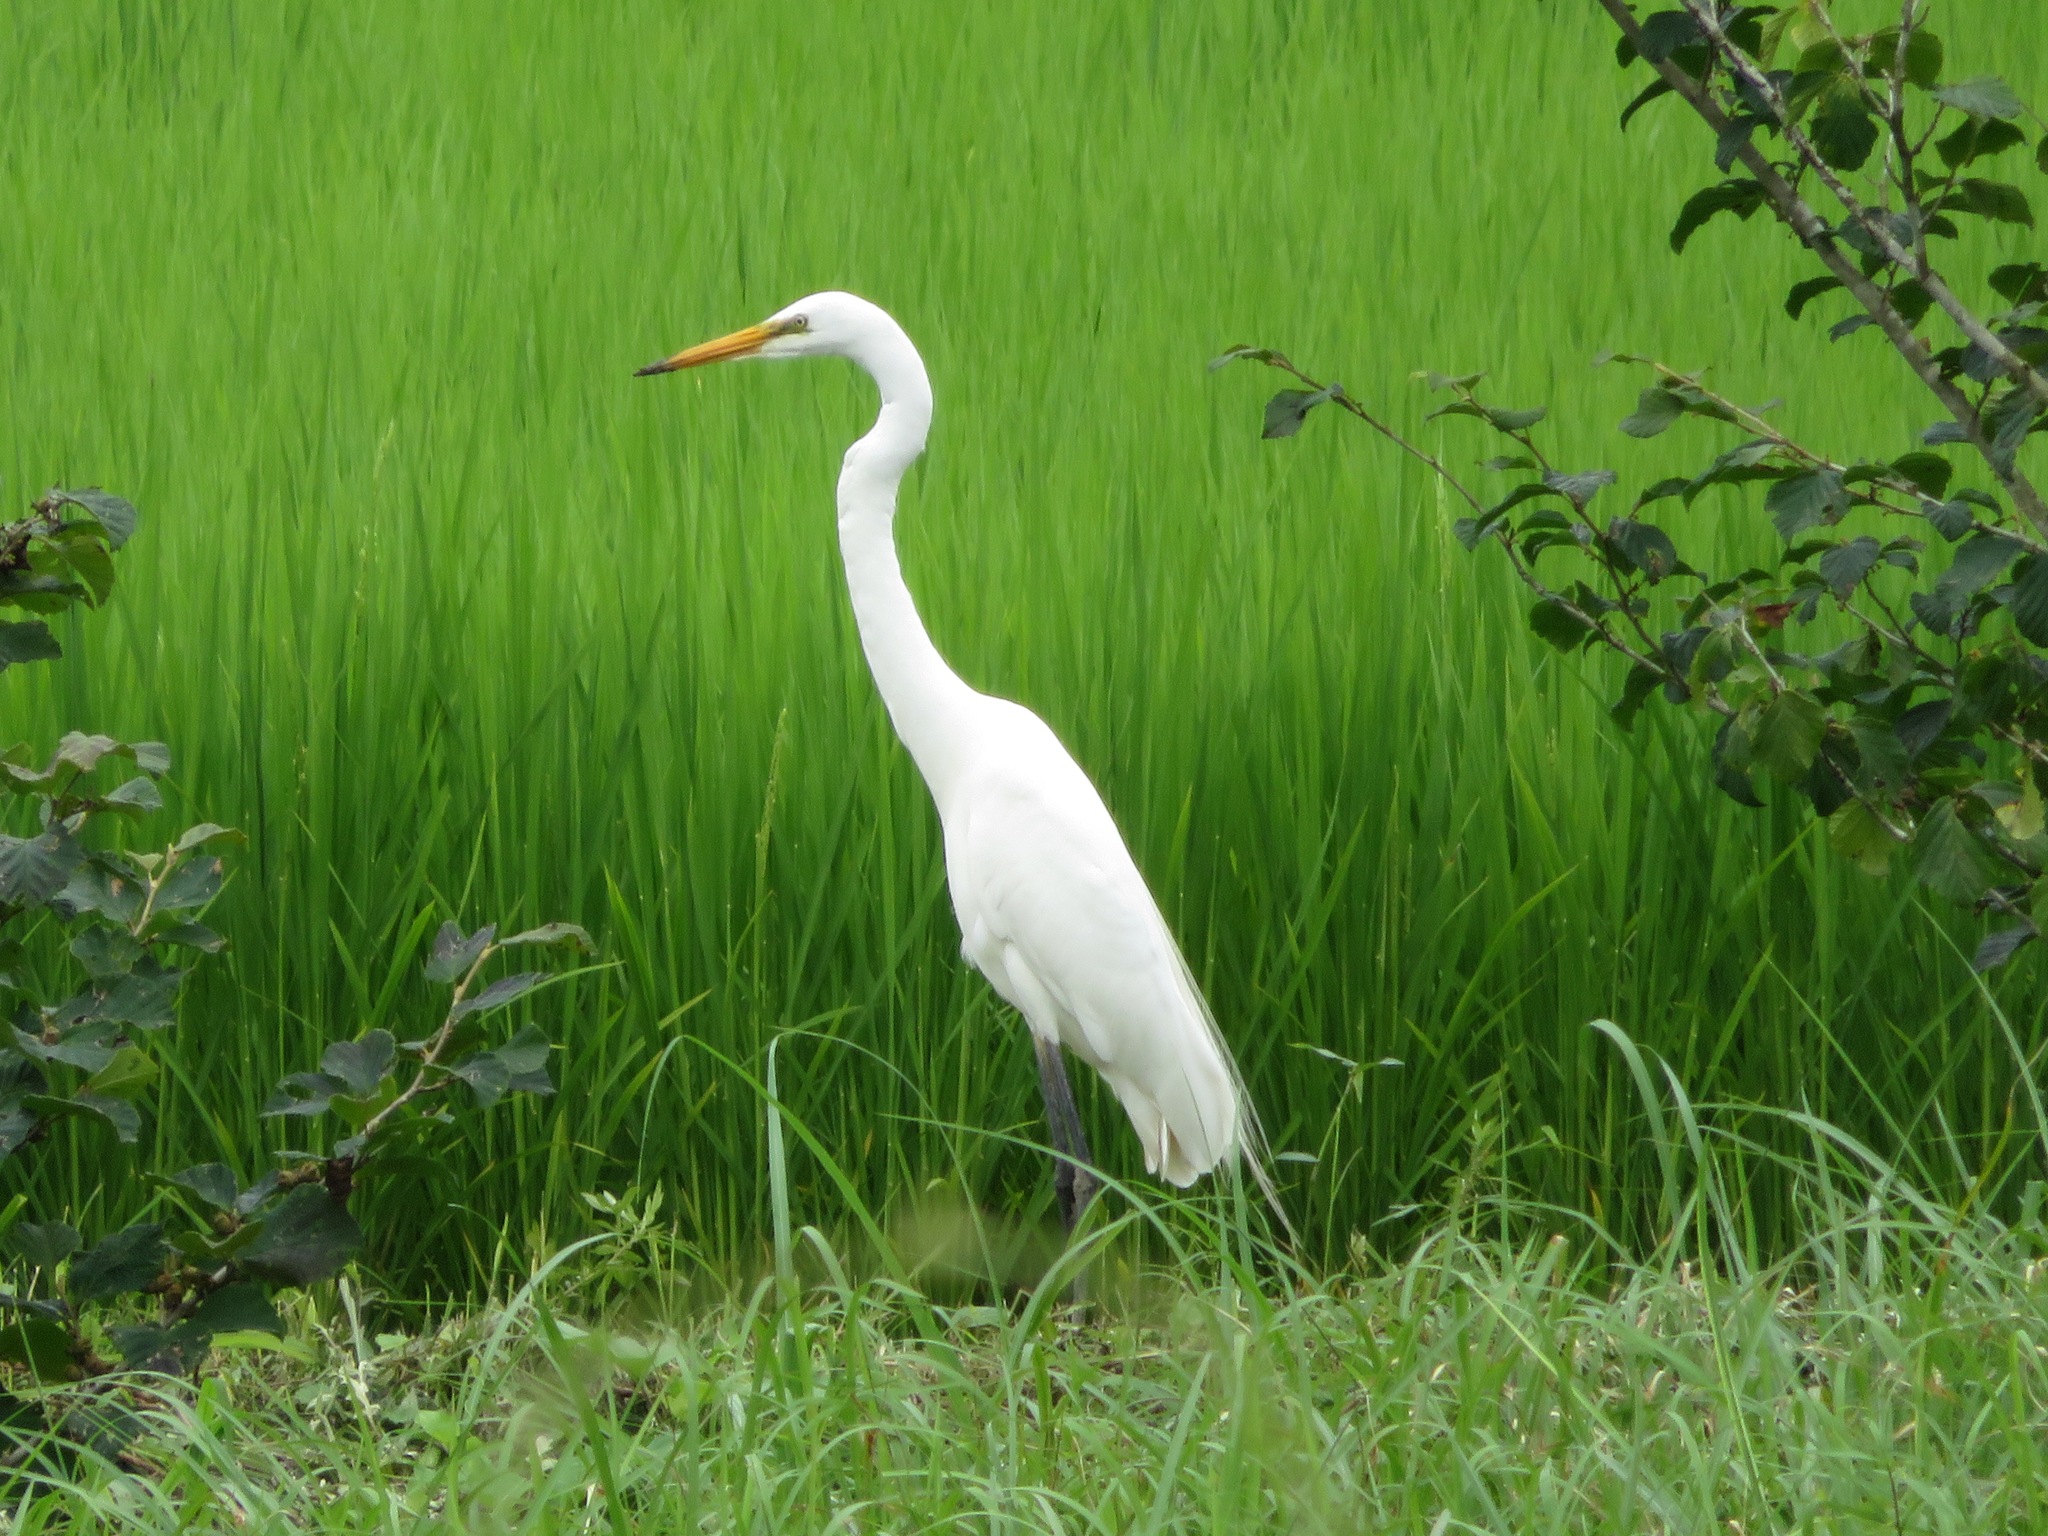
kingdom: Animalia
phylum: Chordata
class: Aves
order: Pelecaniformes
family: Ardeidae
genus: Egretta
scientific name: Egretta intermedia
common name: Intermediate egret
